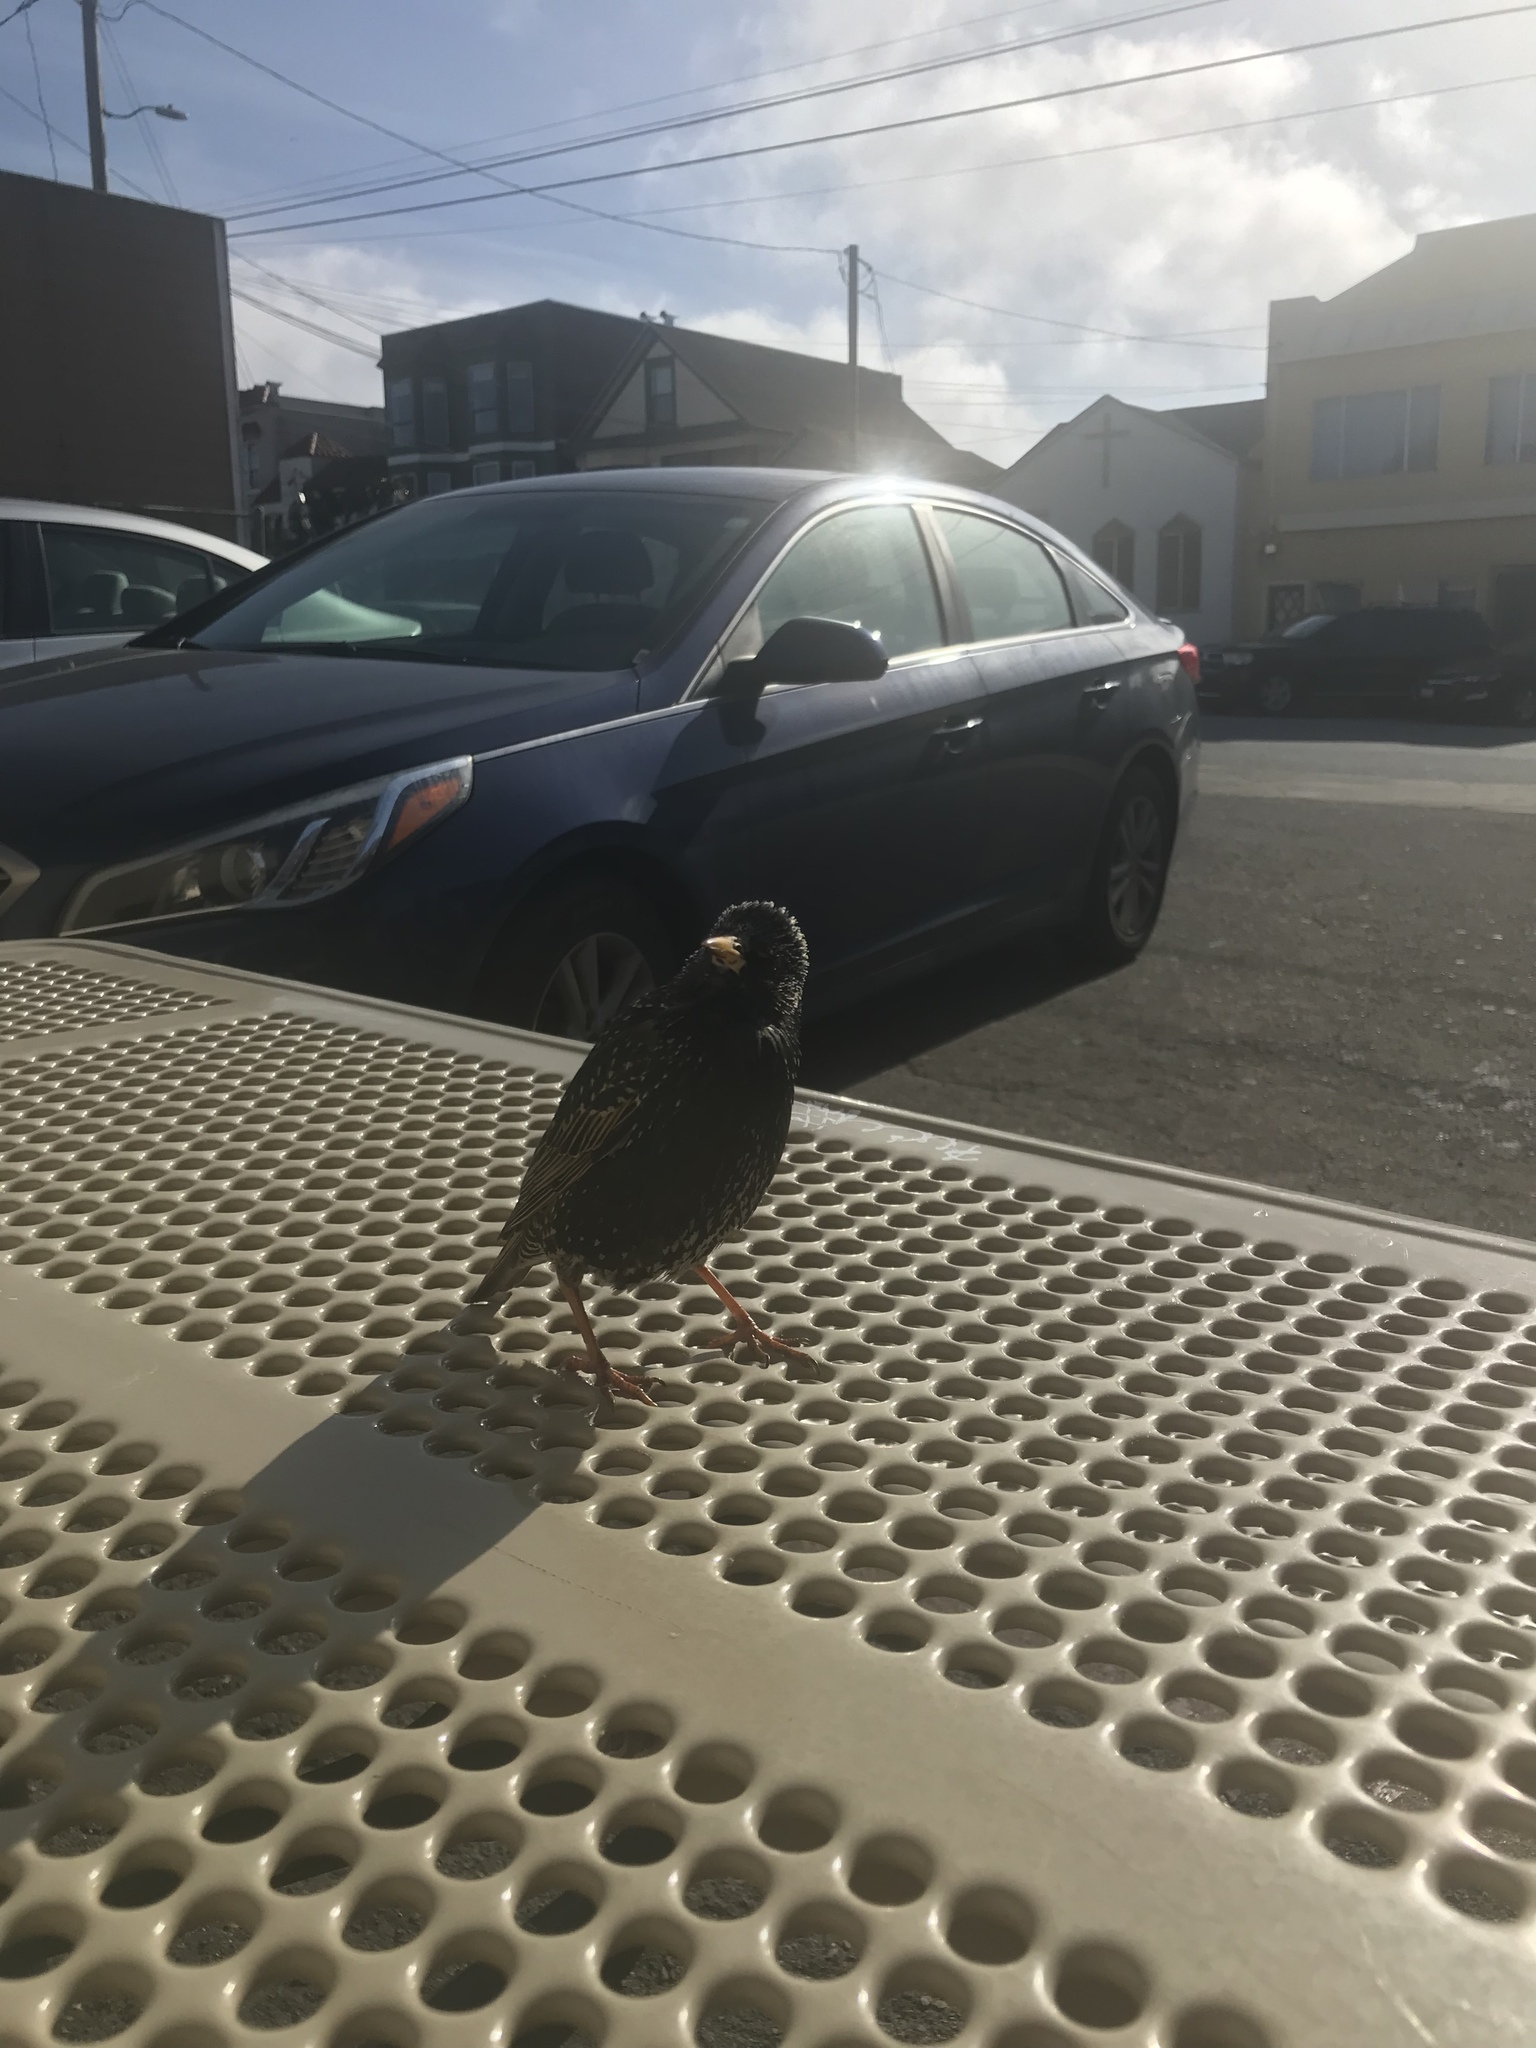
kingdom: Animalia
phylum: Chordata
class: Aves
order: Passeriformes
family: Sturnidae
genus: Sturnus
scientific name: Sturnus vulgaris
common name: Common starling
